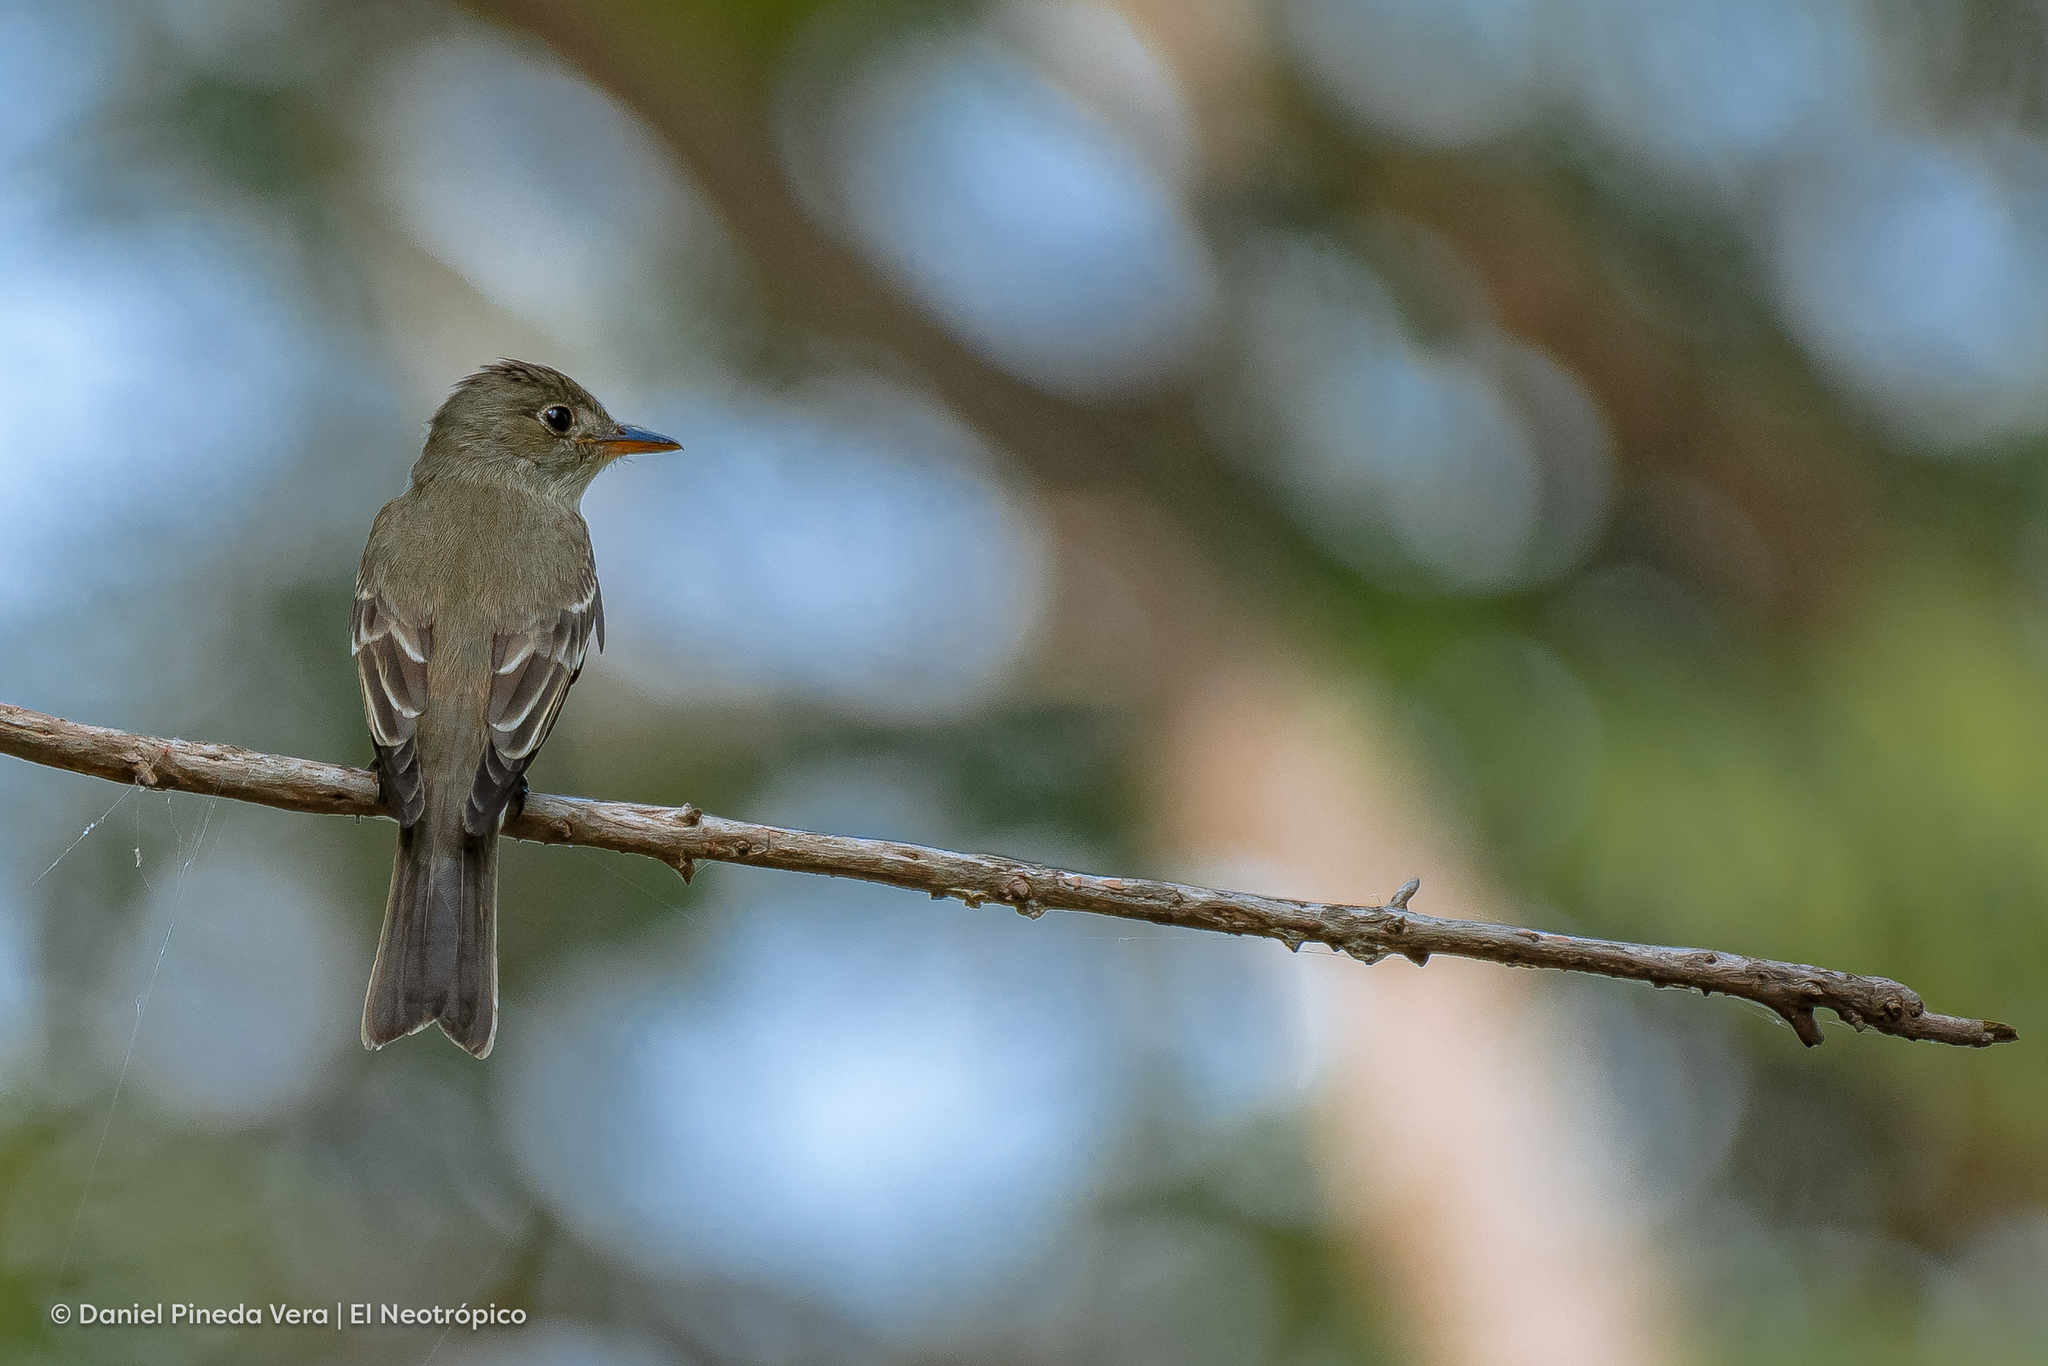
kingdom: Animalia
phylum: Chordata
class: Aves
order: Passeriformes
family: Tyrannidae
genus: Contopus
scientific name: Contopus virens
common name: Eastern wood-pewee
